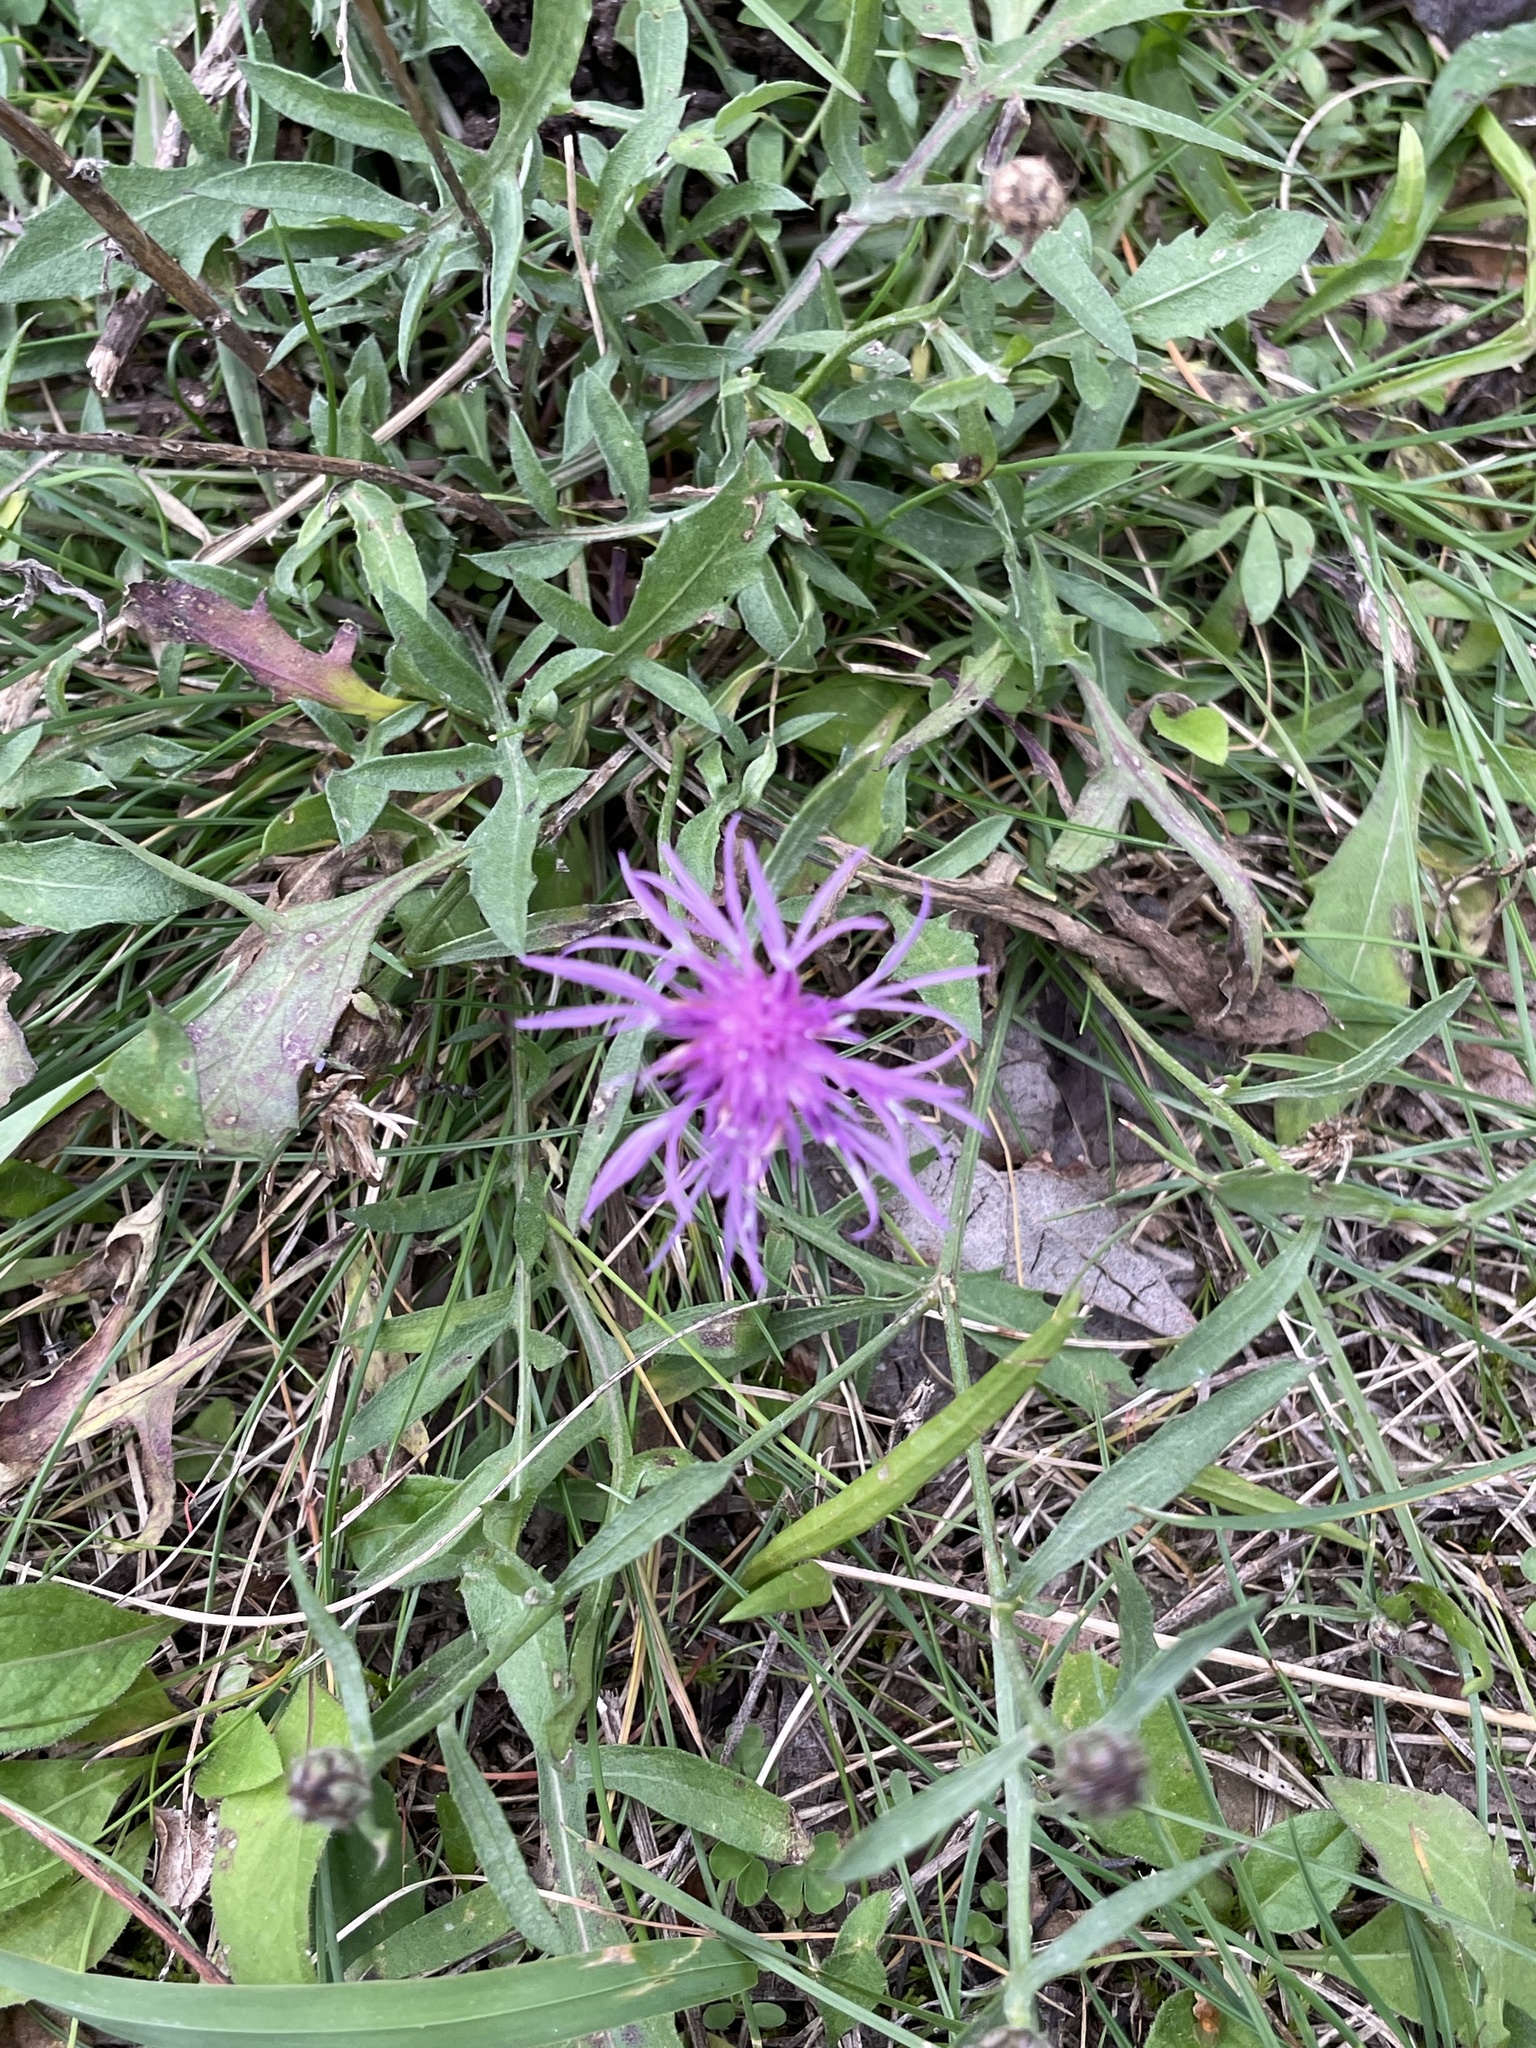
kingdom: Plantae
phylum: Tracheophyta
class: Magnoliopsida
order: Asterales
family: Asteraceae
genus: Centaurea
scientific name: Centaurea scabiosa
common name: Greater knapweed
